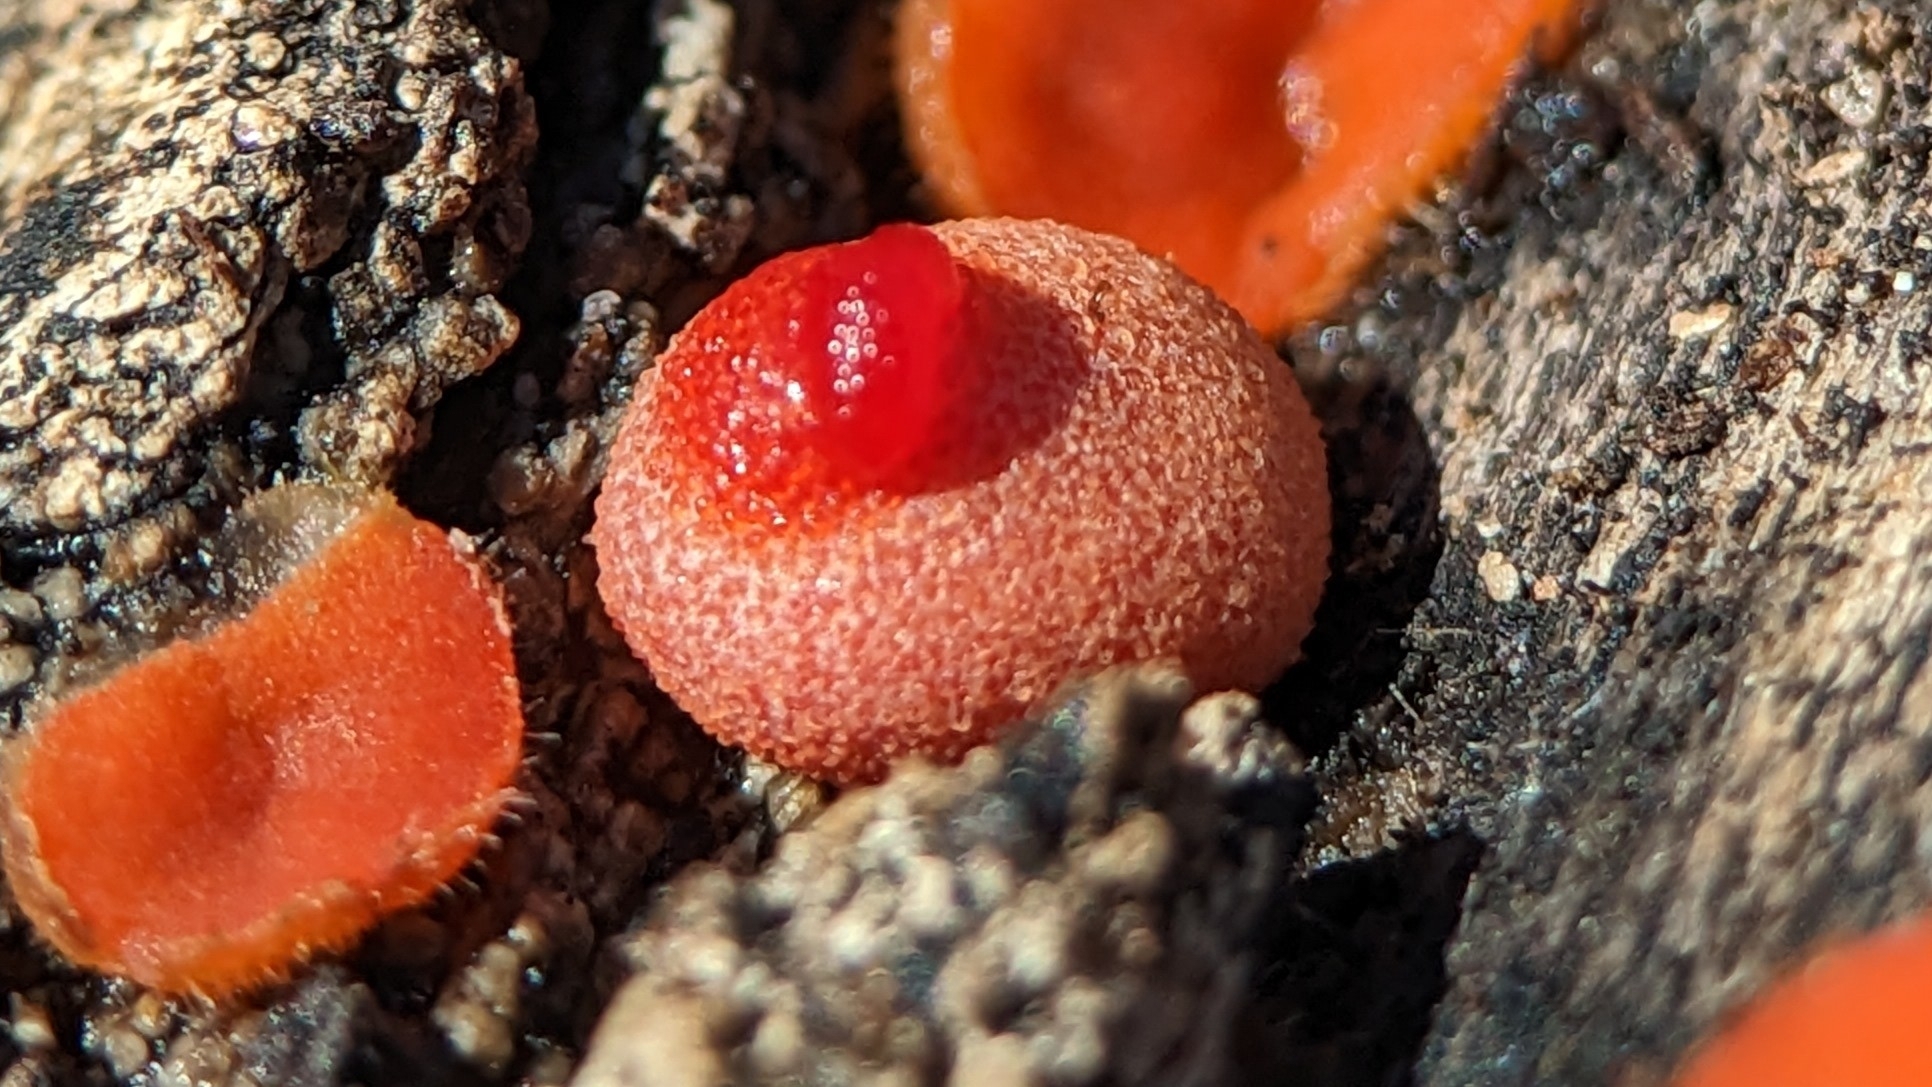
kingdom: Protozoa
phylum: Mycetozoa
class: Myxomycetes
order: Cribrariales
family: Tubiferaceae
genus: Lycogala
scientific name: Lycogala epidendrum
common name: Wolf's milk
